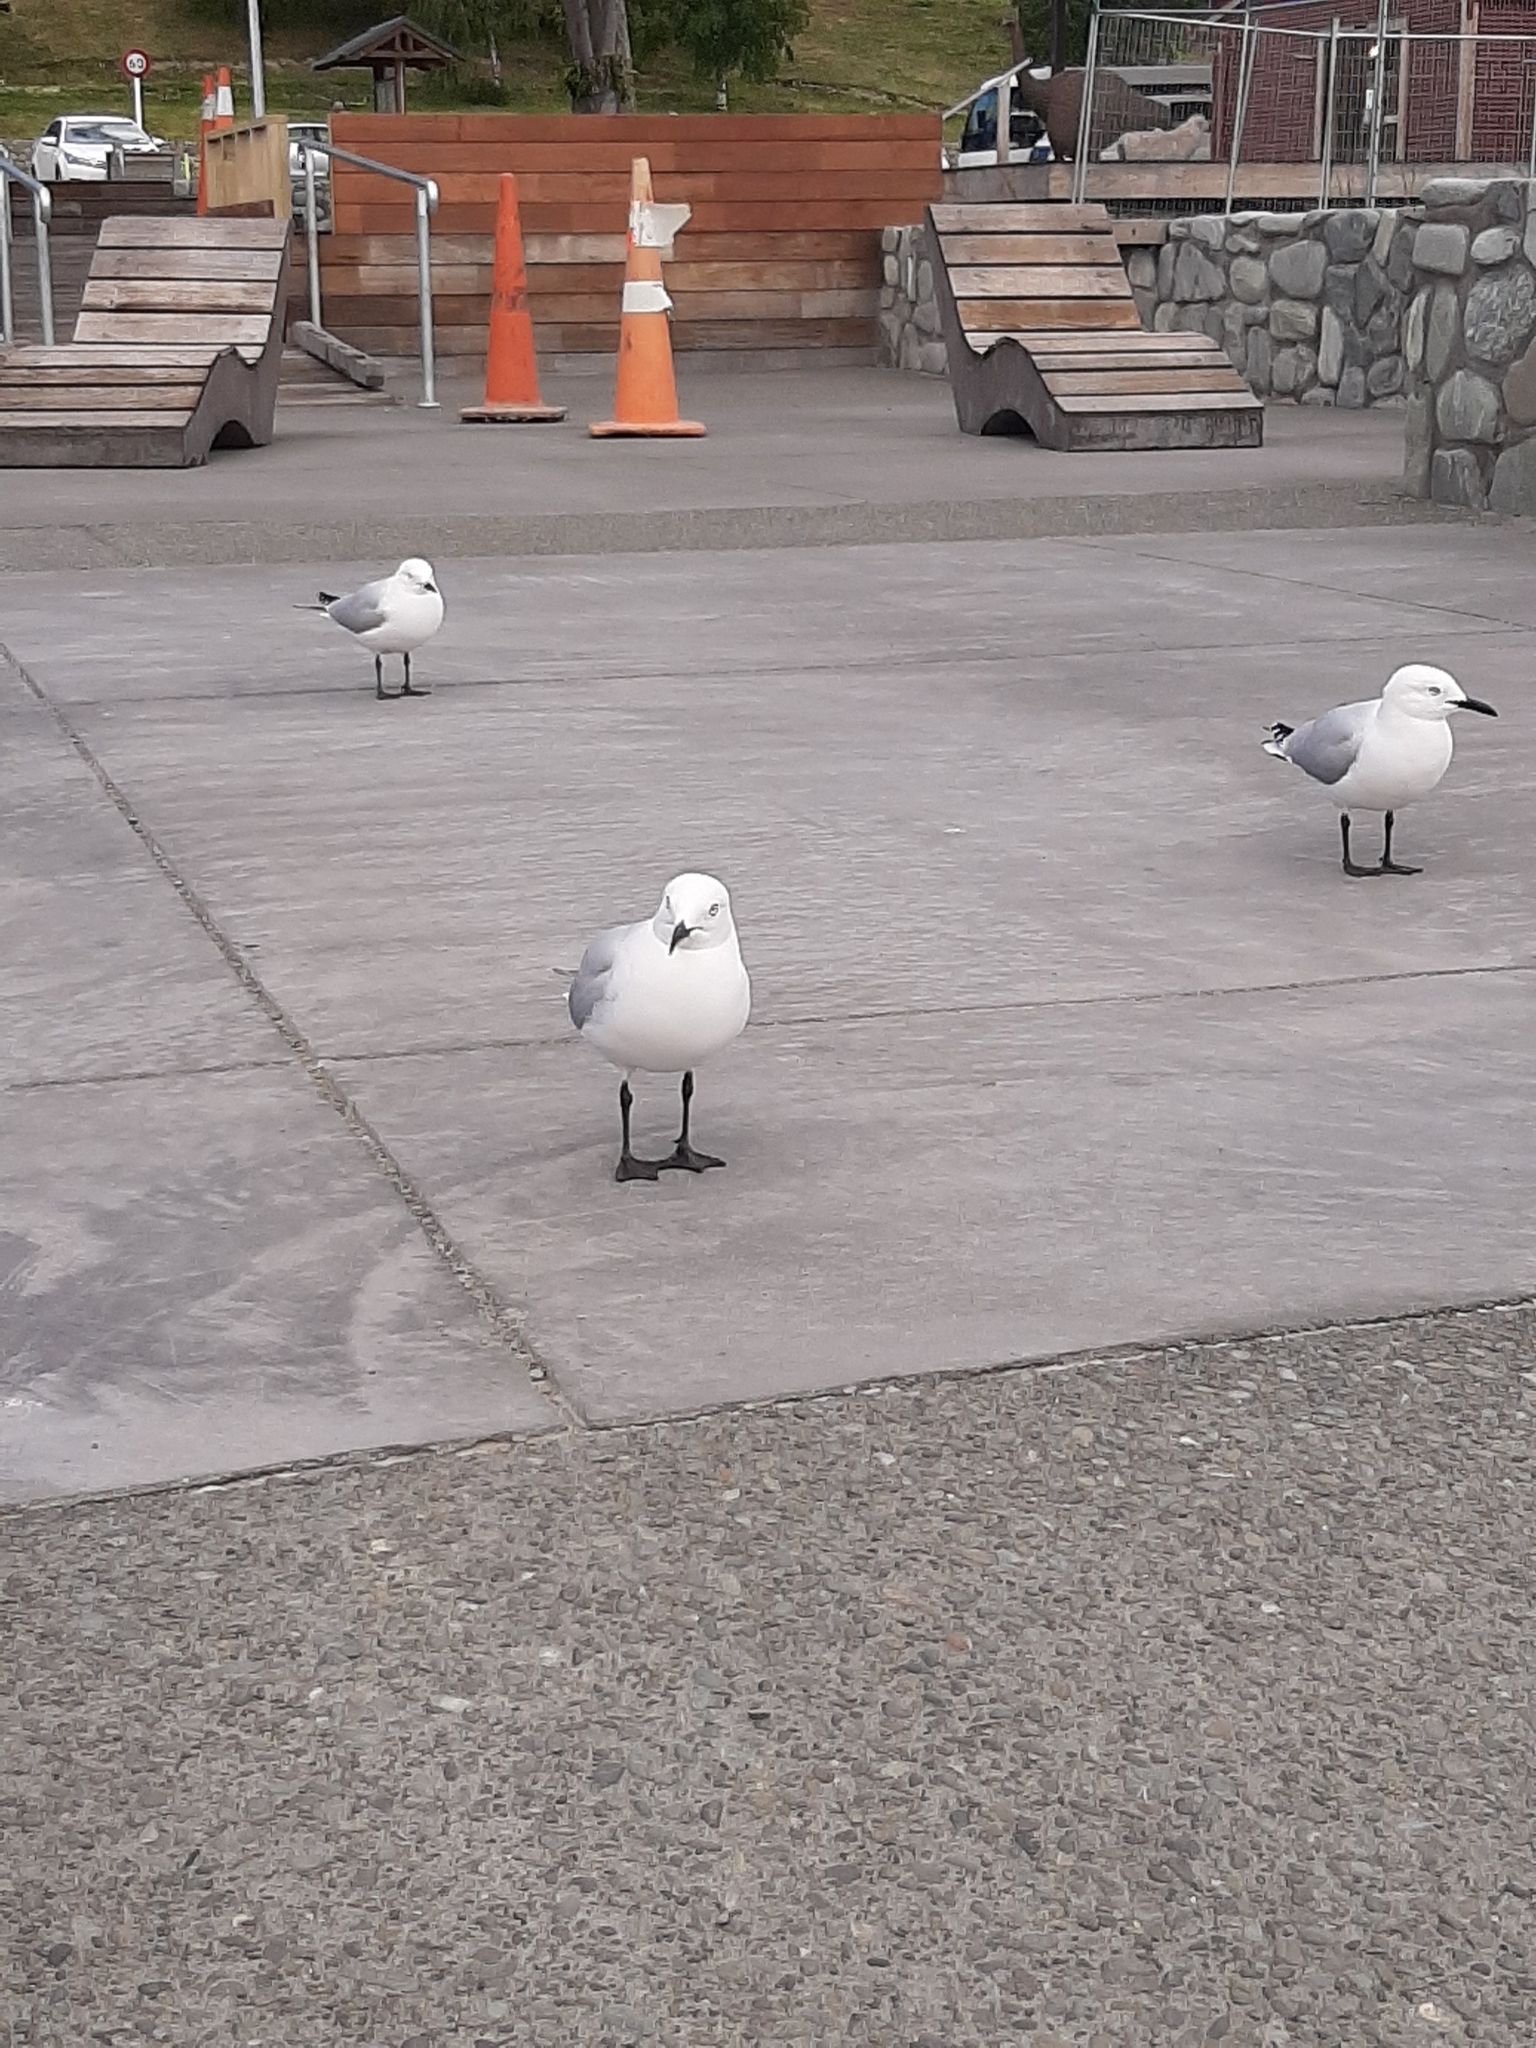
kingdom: Animalia
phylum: Chordata
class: Aves
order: Charadriiformes
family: Laridae
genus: Chroicocephalus
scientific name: Chroicocephalus bulleri
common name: Black-billed gull
